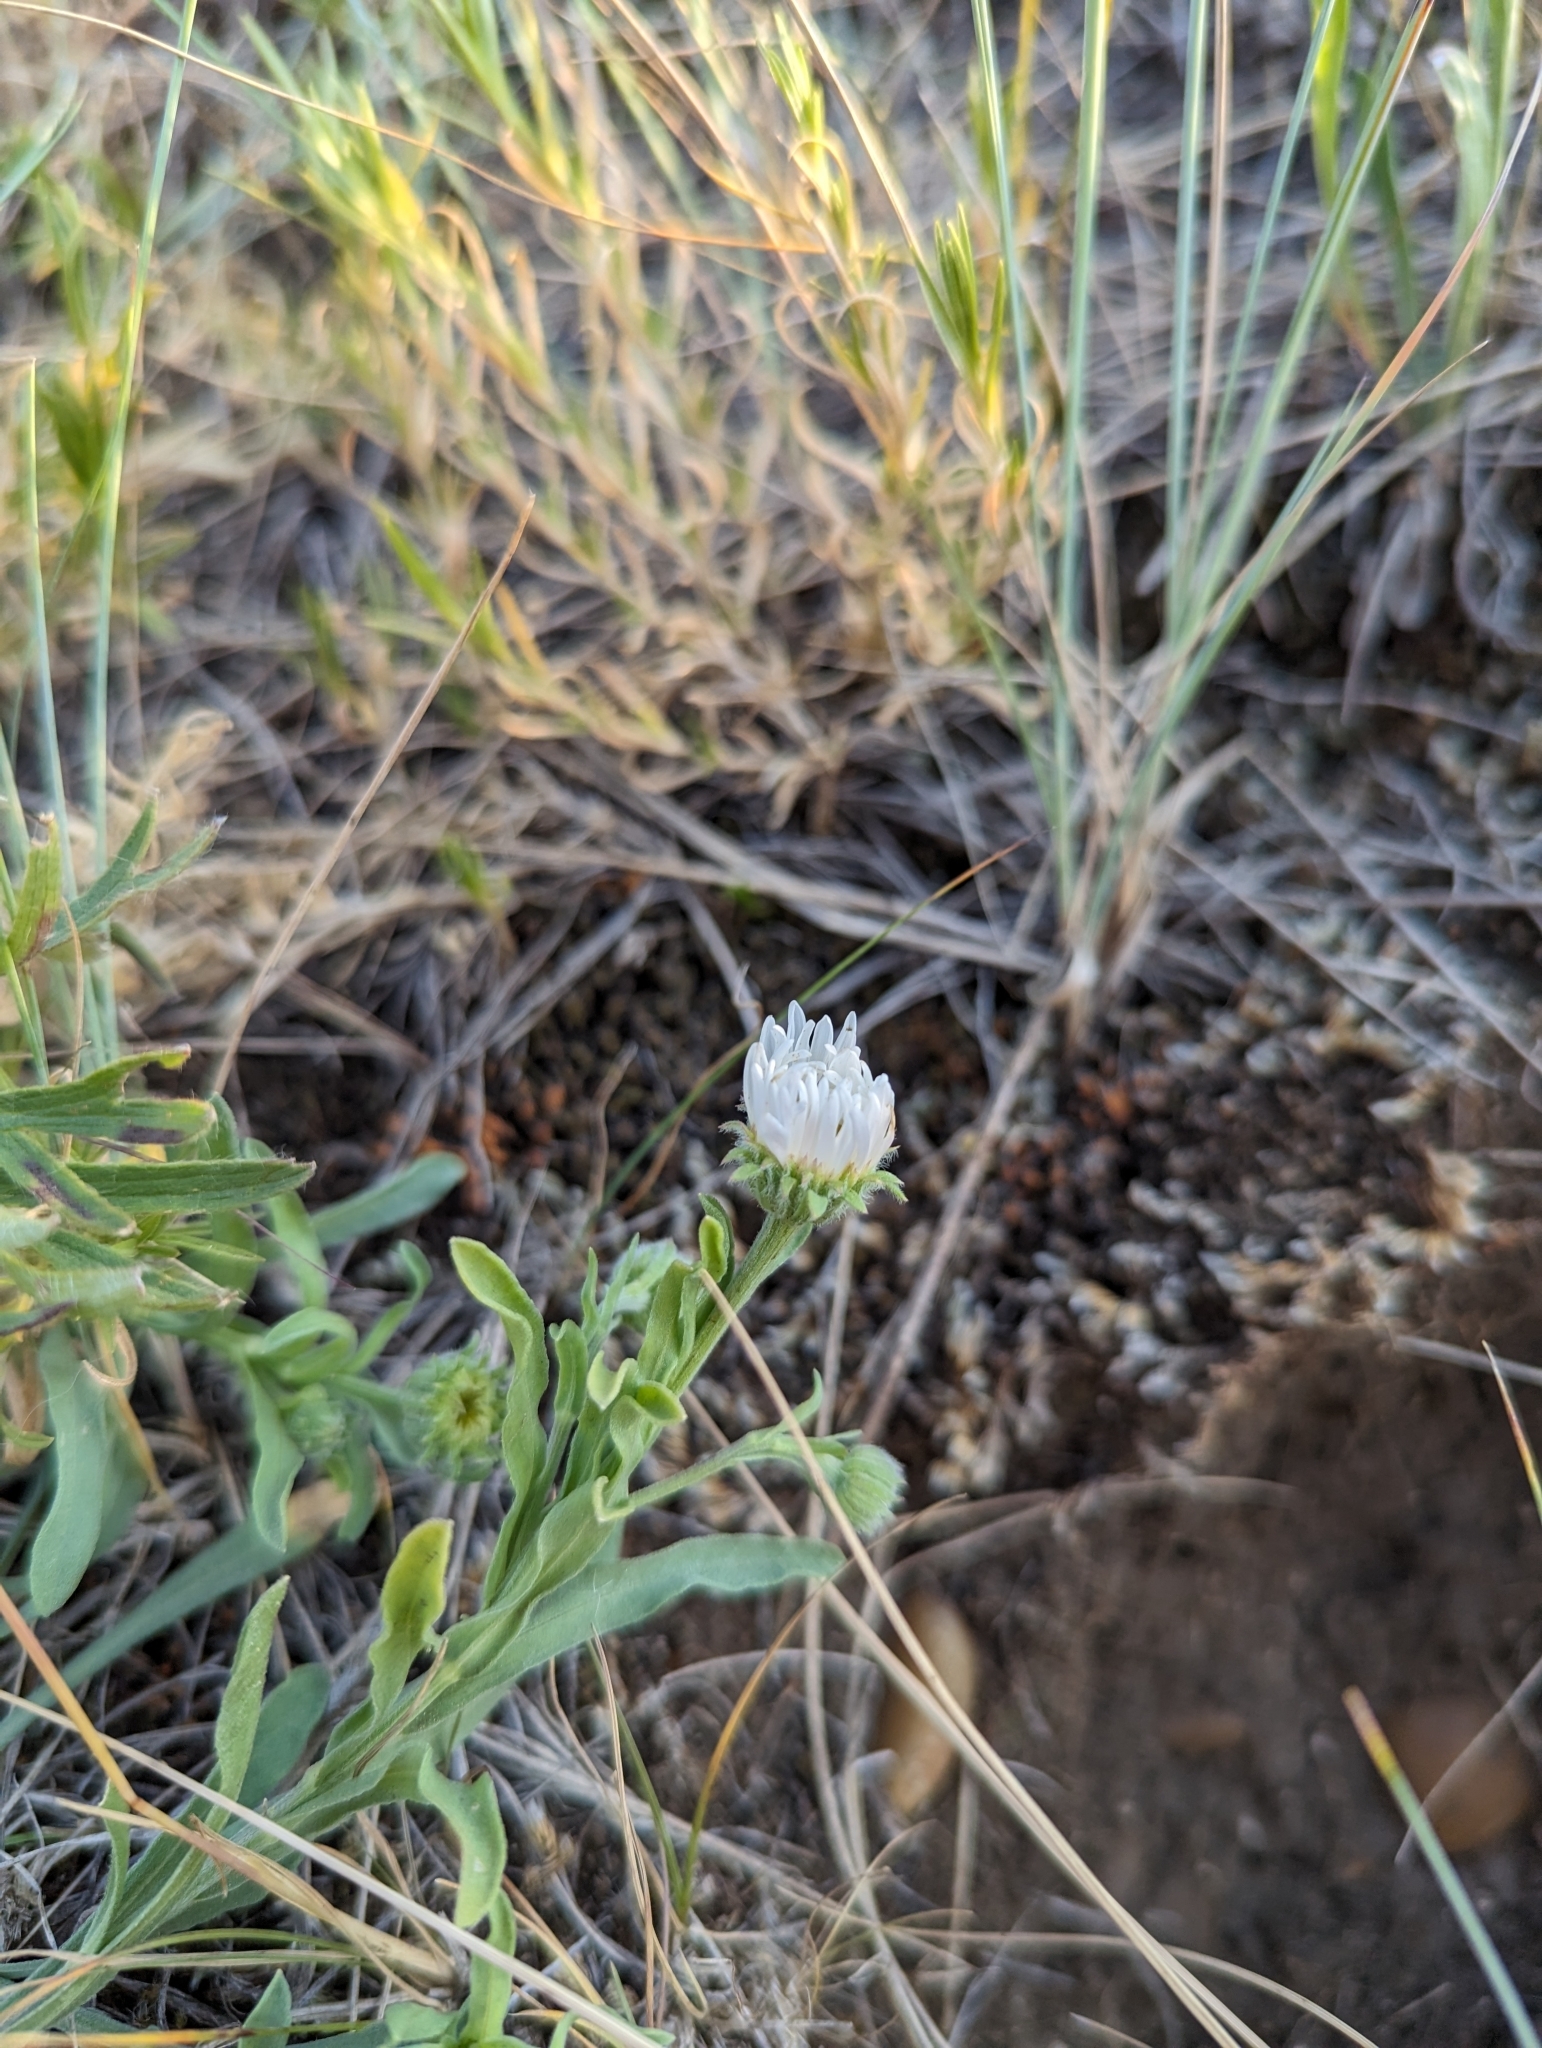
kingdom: Plantae
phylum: Tracheophyta
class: Magnoliopsida
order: Asterales
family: Asteraceae
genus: Erigeron
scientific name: Erigeron caespitosus
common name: Tufted fleabane
